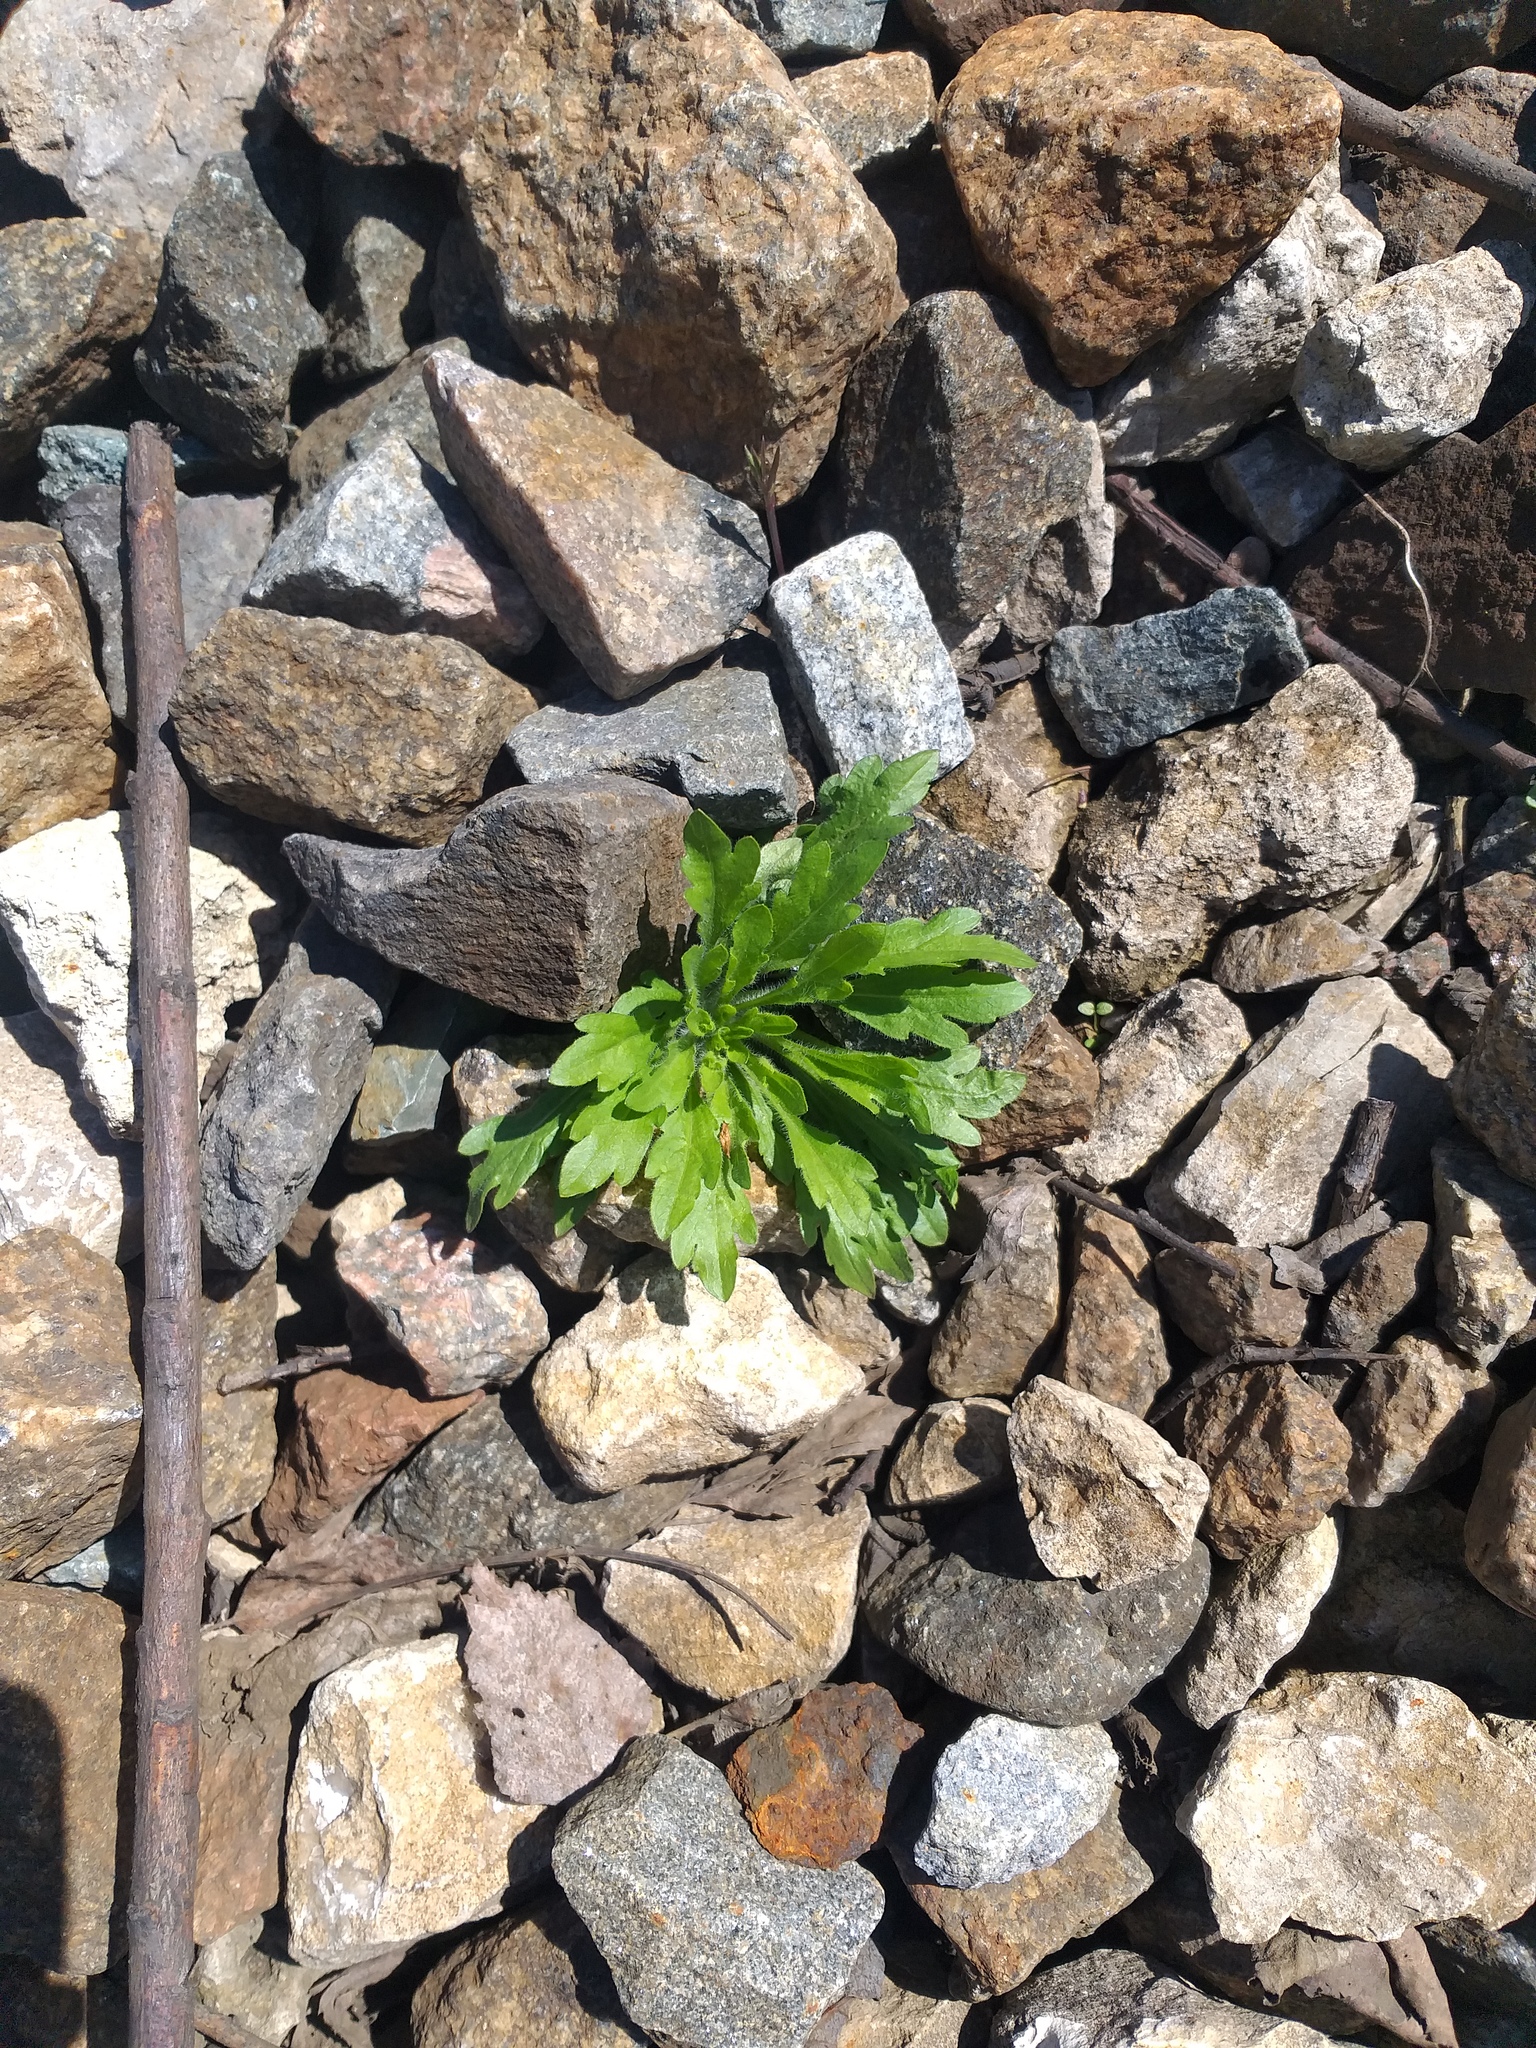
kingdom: Plantae
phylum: Tracheophyta
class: Magnoliopsida
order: Asterales
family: Asteraceae
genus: Erigeron
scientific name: Erigeron canadensis
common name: Canadian fleabane
